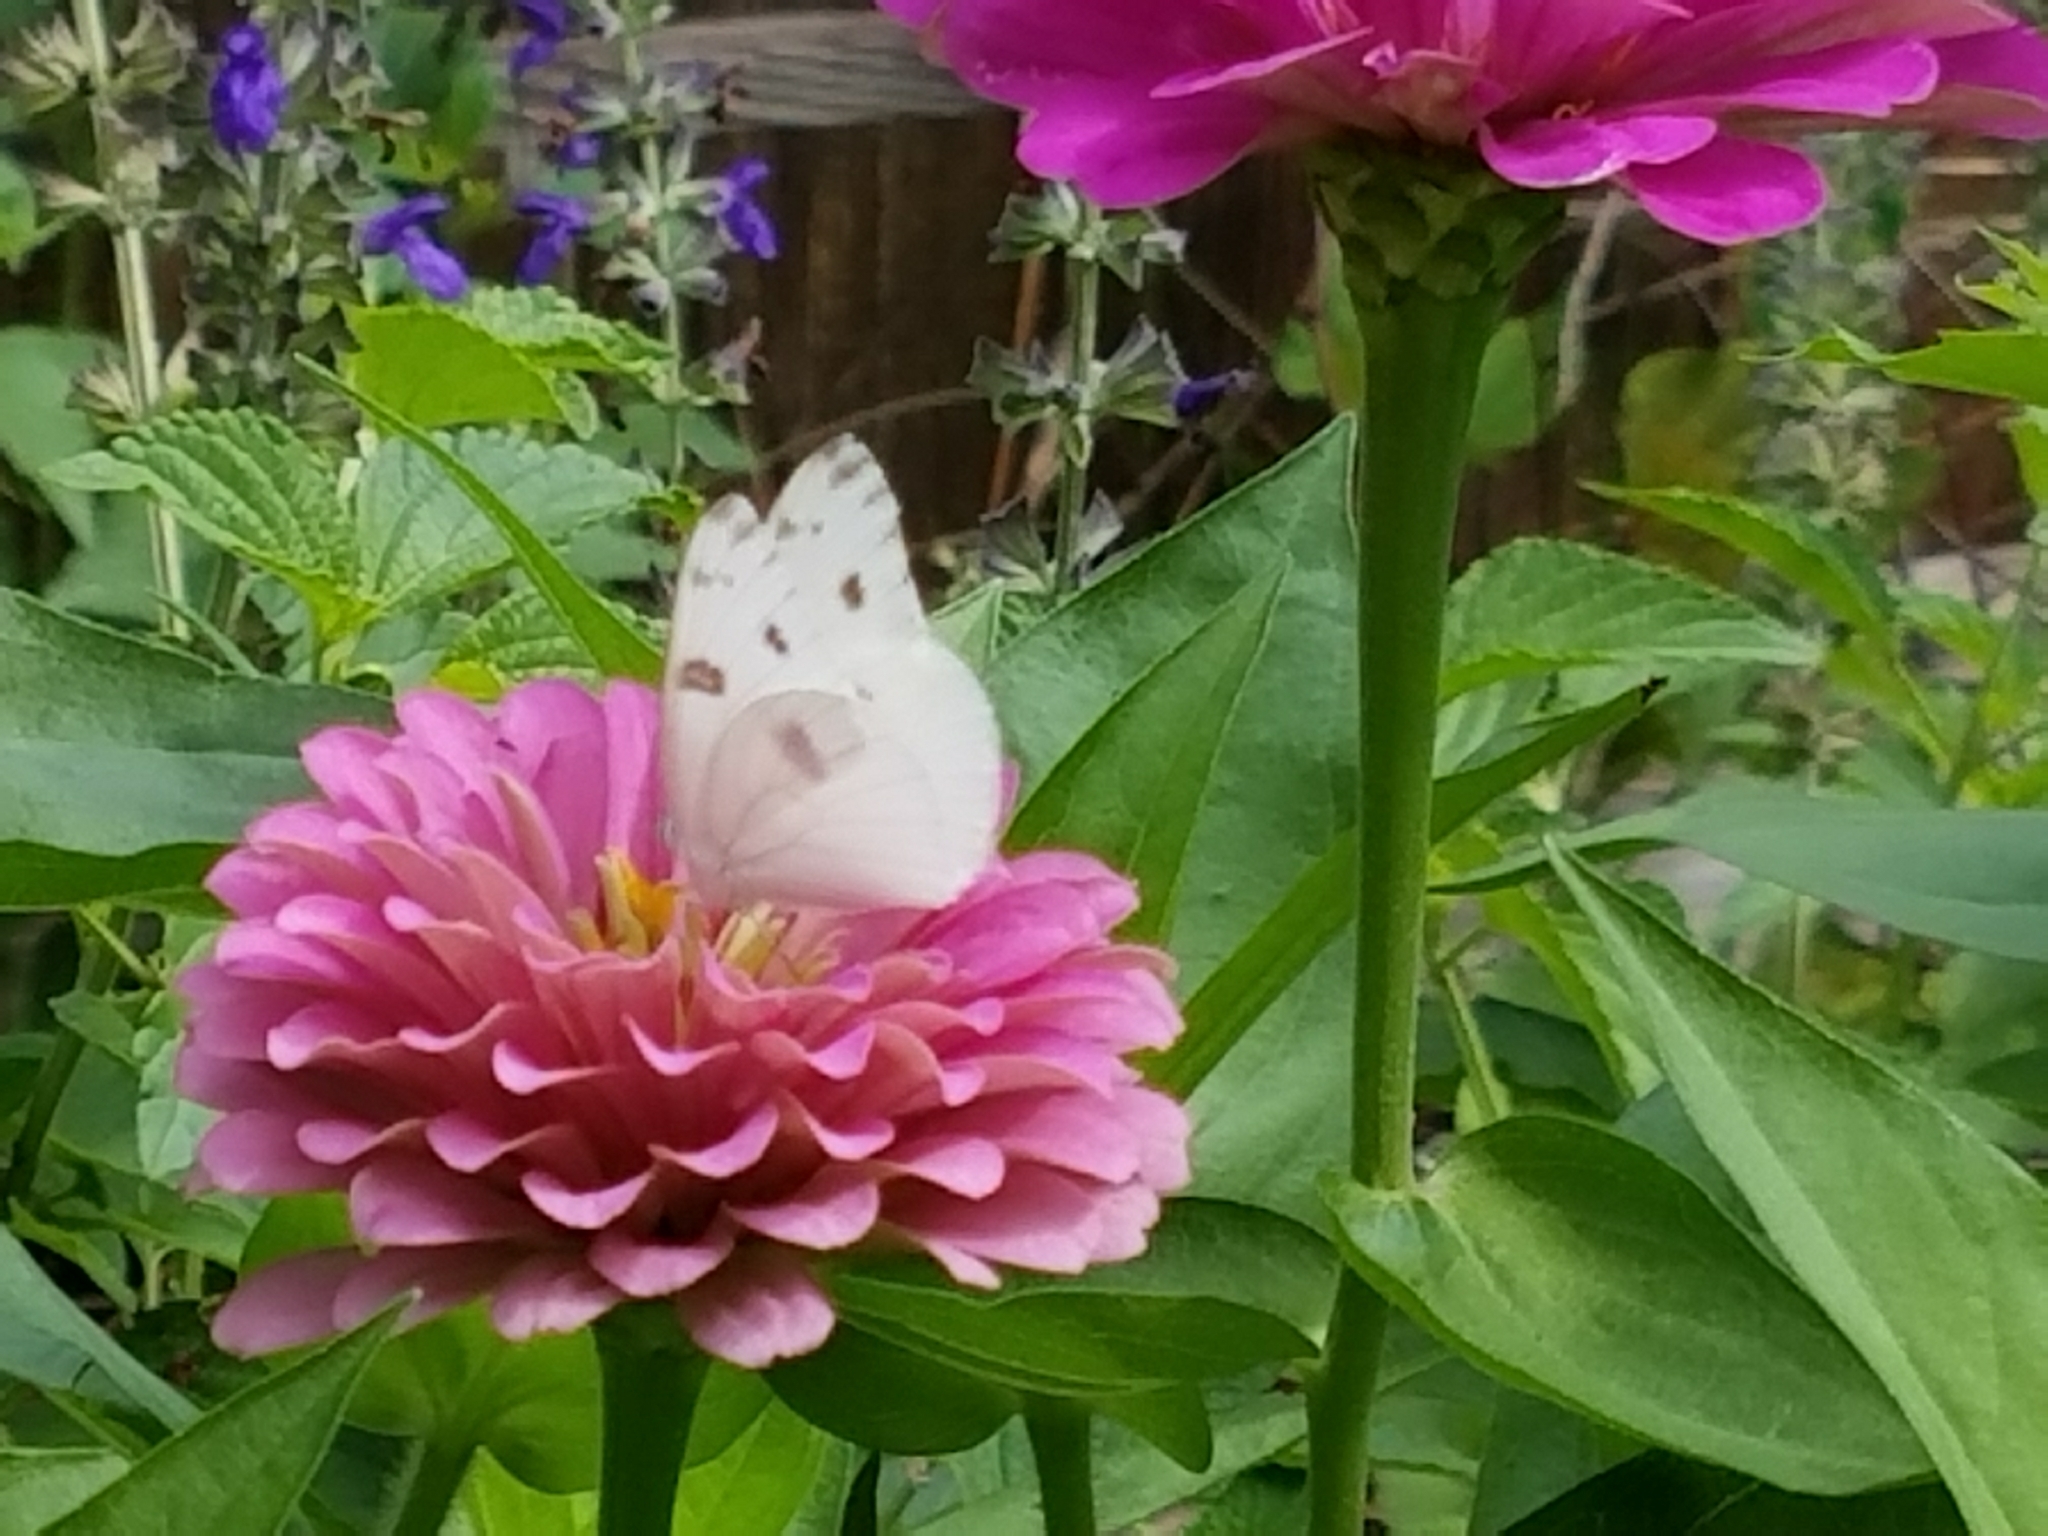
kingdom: Animalia
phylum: Arthropoda
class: Insecta
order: Lepidoptera
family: Pieridae
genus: Pontia
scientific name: Pontia protodice
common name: Checkered white
